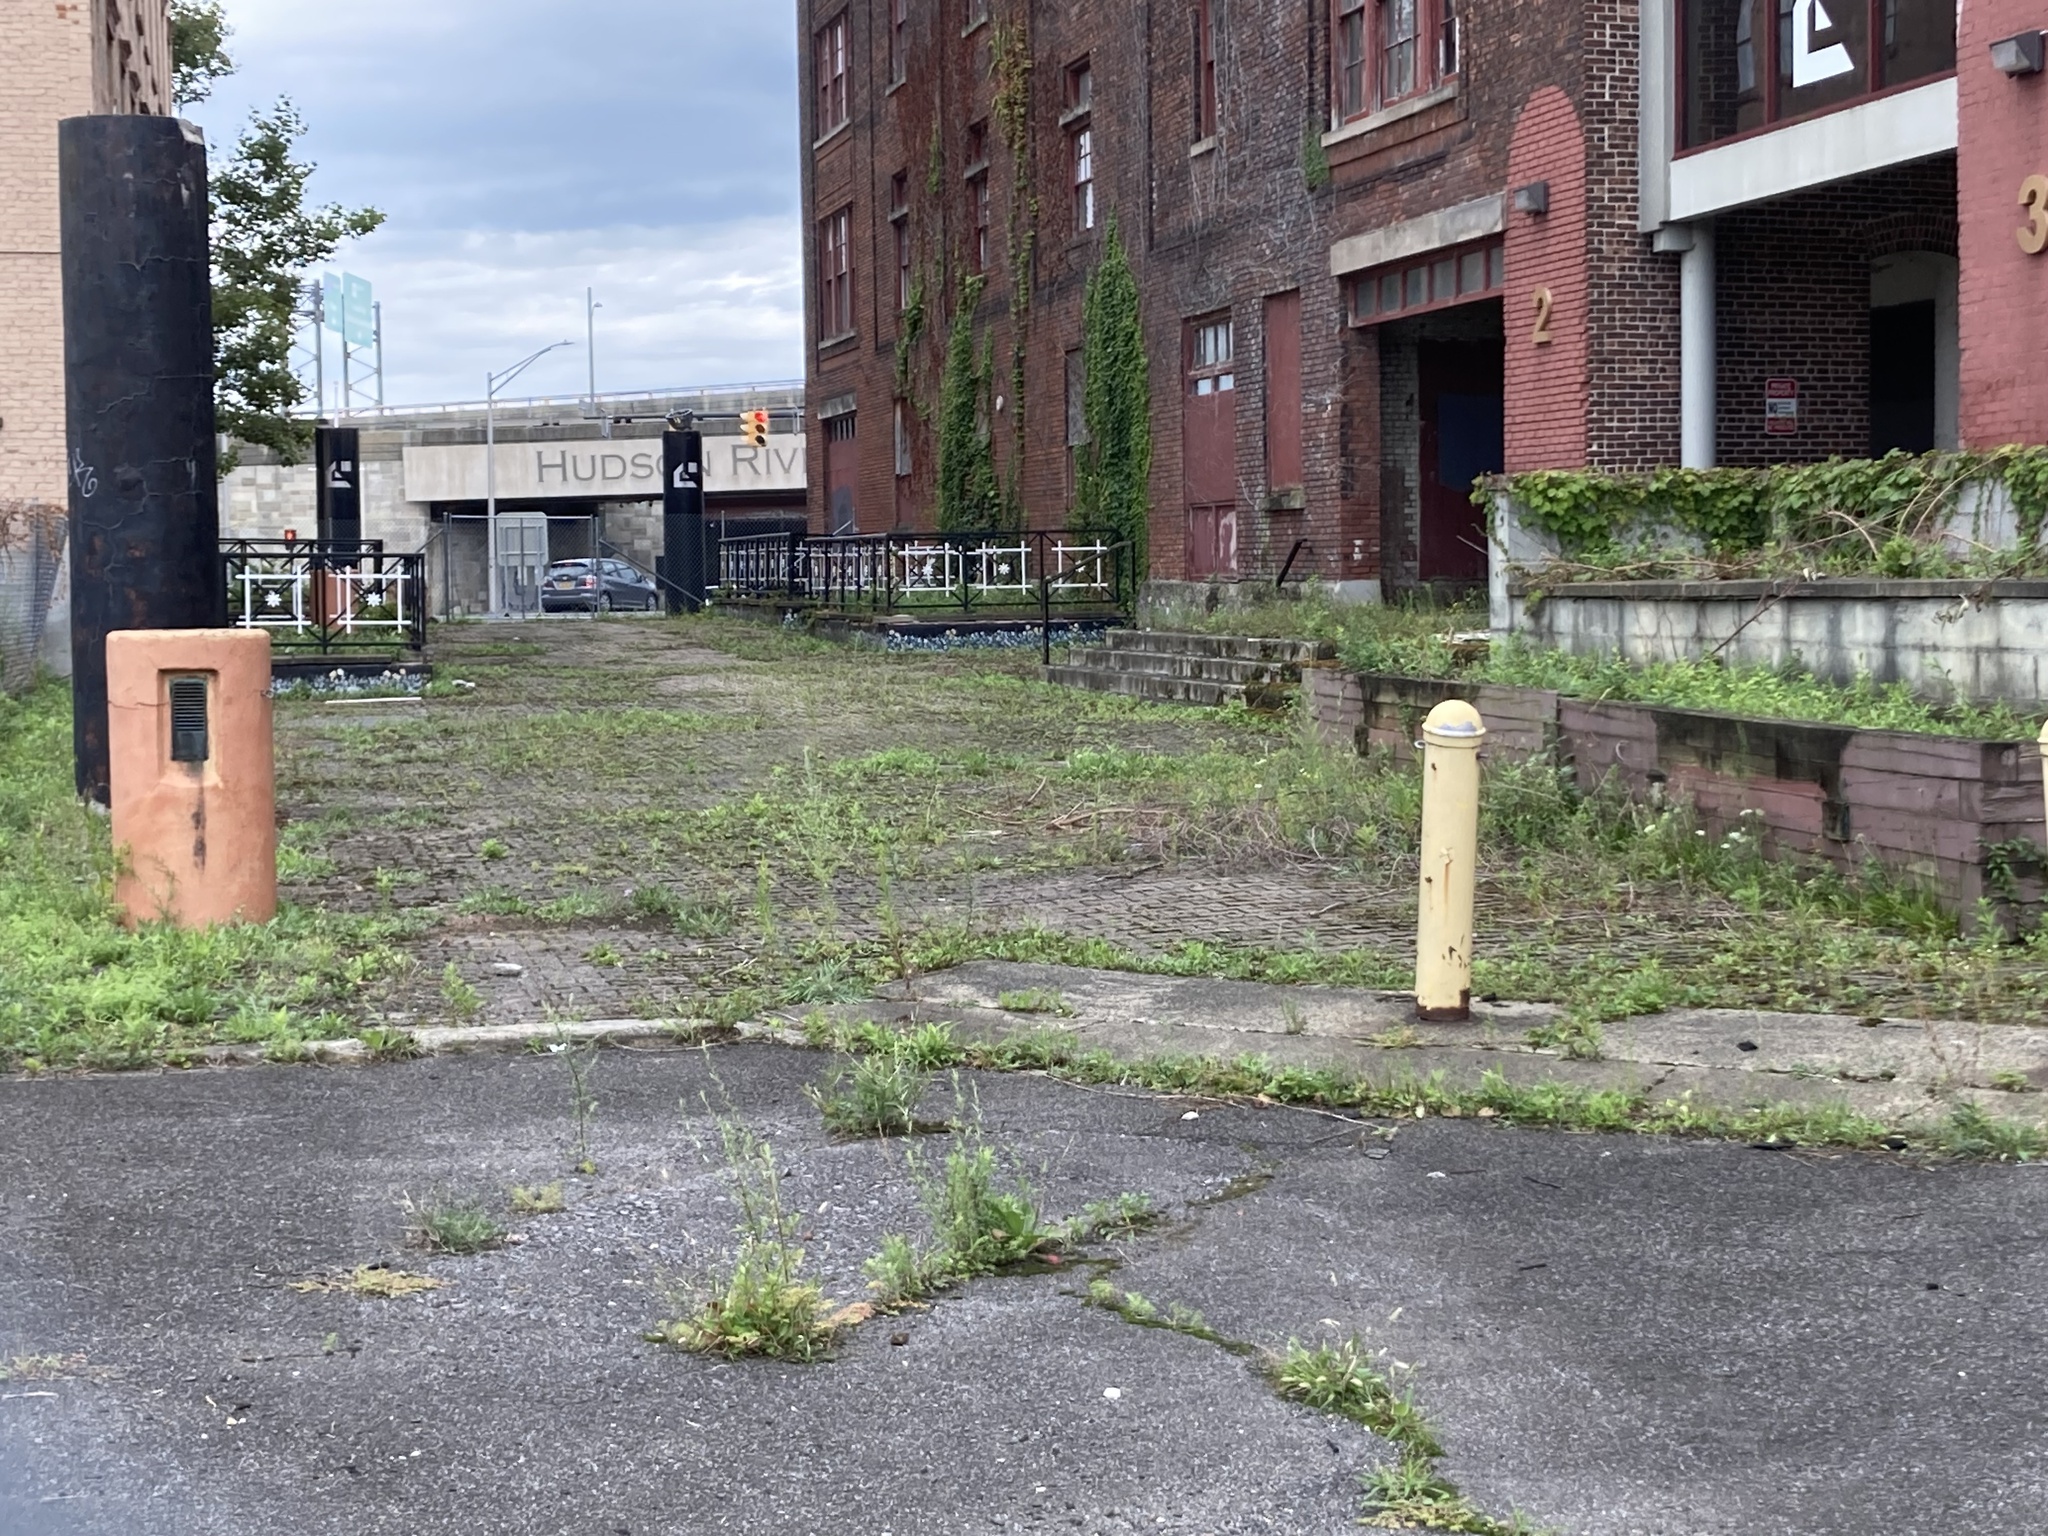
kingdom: Plantae
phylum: Tracheophyta
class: Magnoliopsida
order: Fabales
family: Fabaceae
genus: Pueraria
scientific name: Pueraria montana
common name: Kudzu
